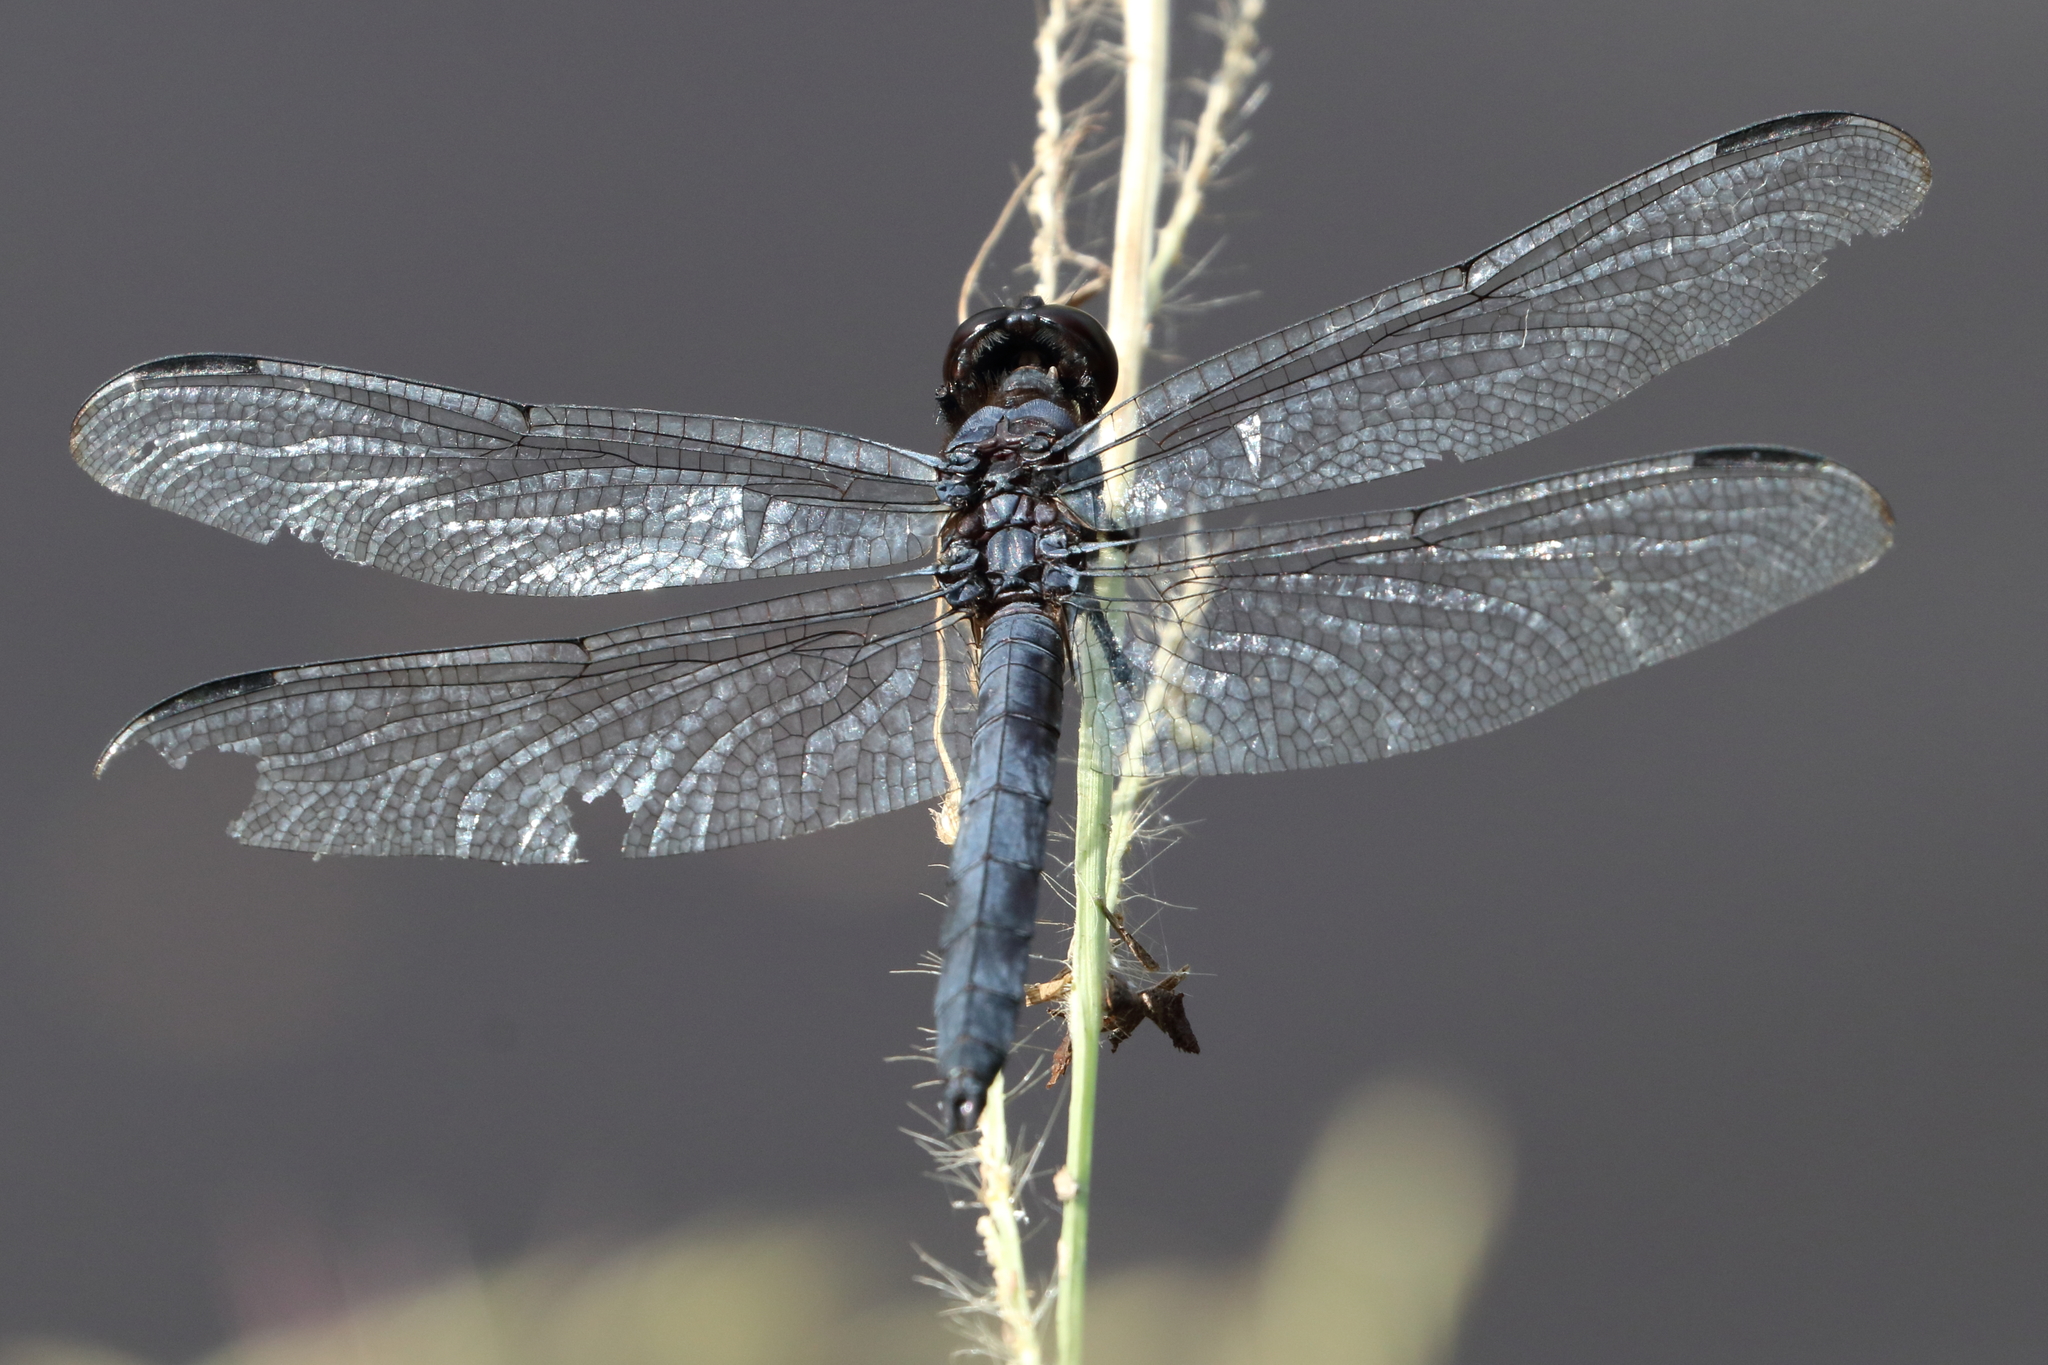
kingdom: Animalia
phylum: Arthropoda
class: Insecta
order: Odonata
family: Libellulidae
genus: Libellula
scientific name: Libellula incesta
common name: Slaty skimmer
